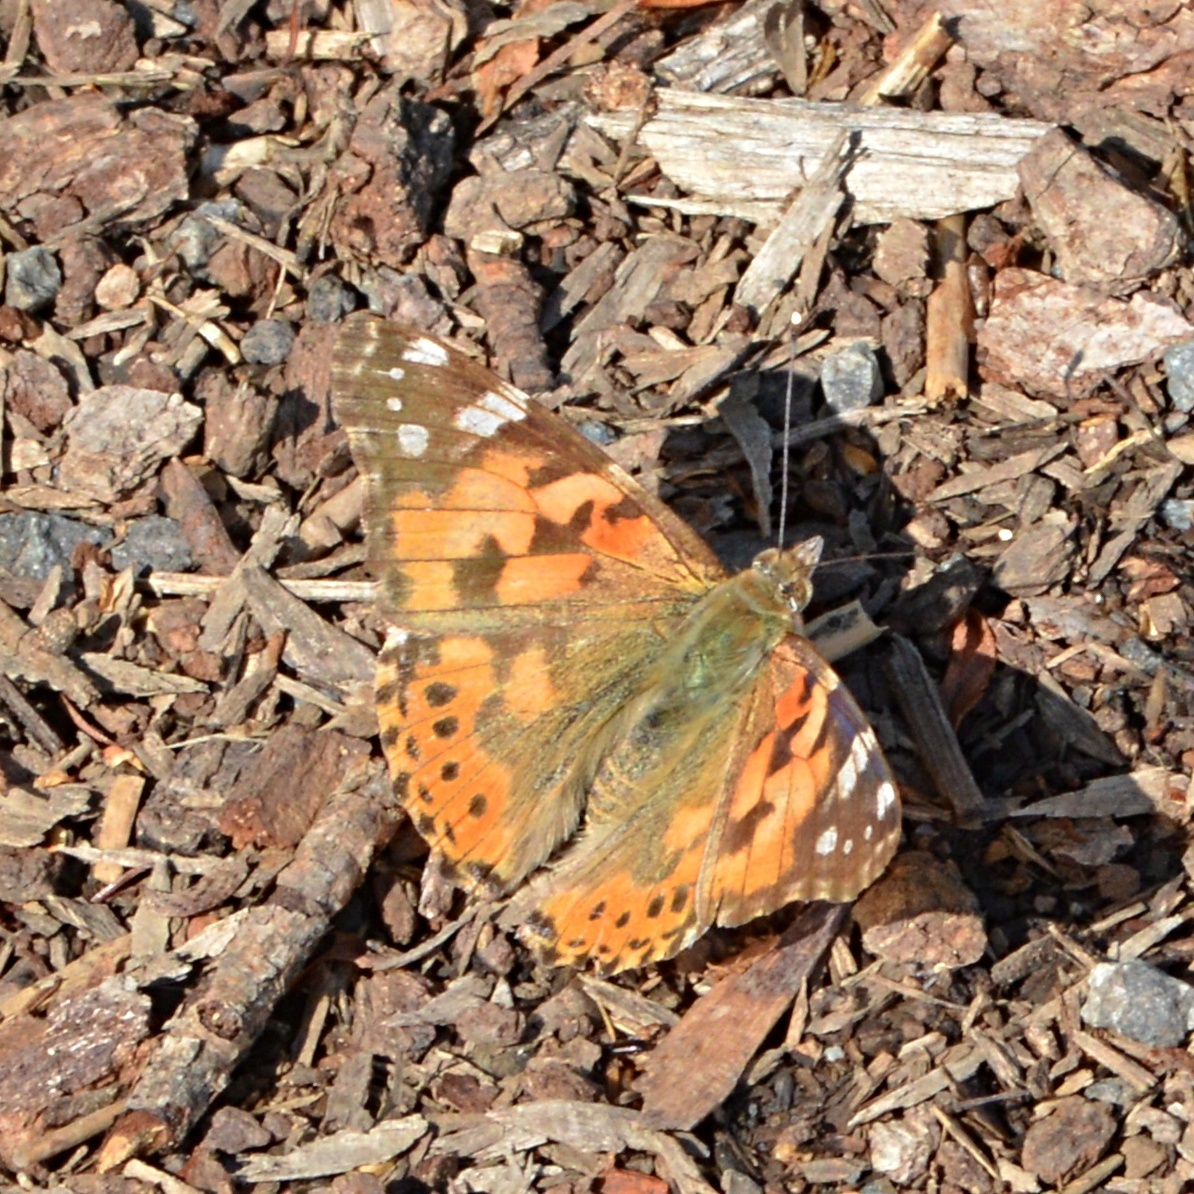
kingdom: Animalia
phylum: Arthropoda
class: Insecta
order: Lepidoptera
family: Nymphalidae
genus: Vanessa
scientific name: Vanessa cardui
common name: Painted lady
